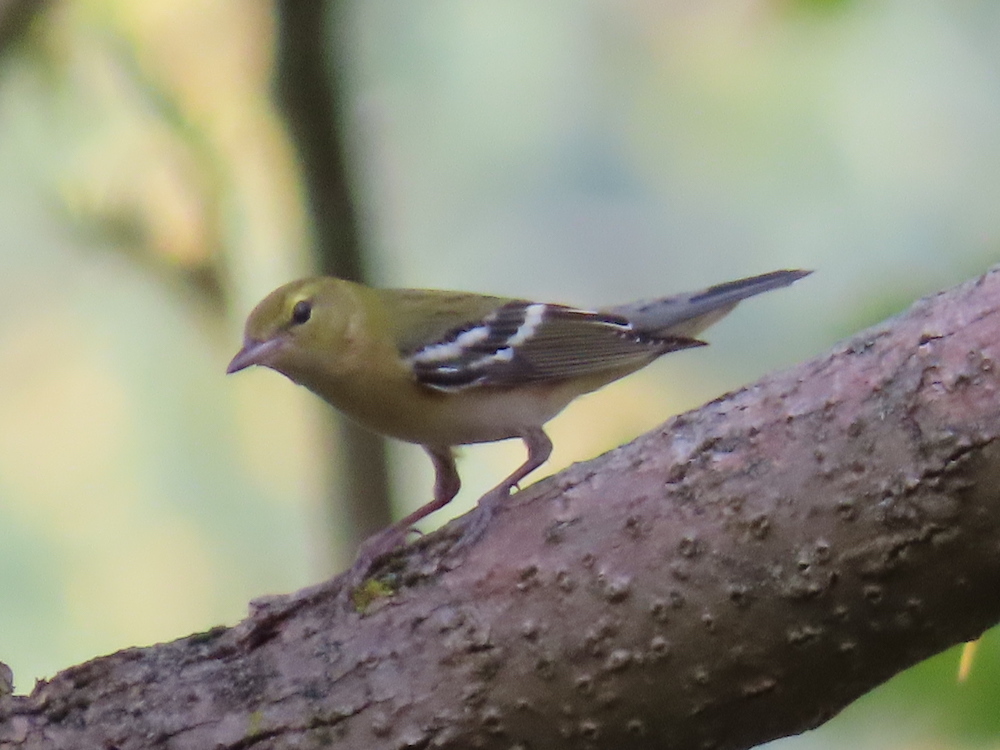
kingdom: Animalia
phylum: Chordata
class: Aves
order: Passeriformes
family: Parulidae
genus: Setophaga
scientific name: Setophaga castanea
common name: Bay-breasted warbler
